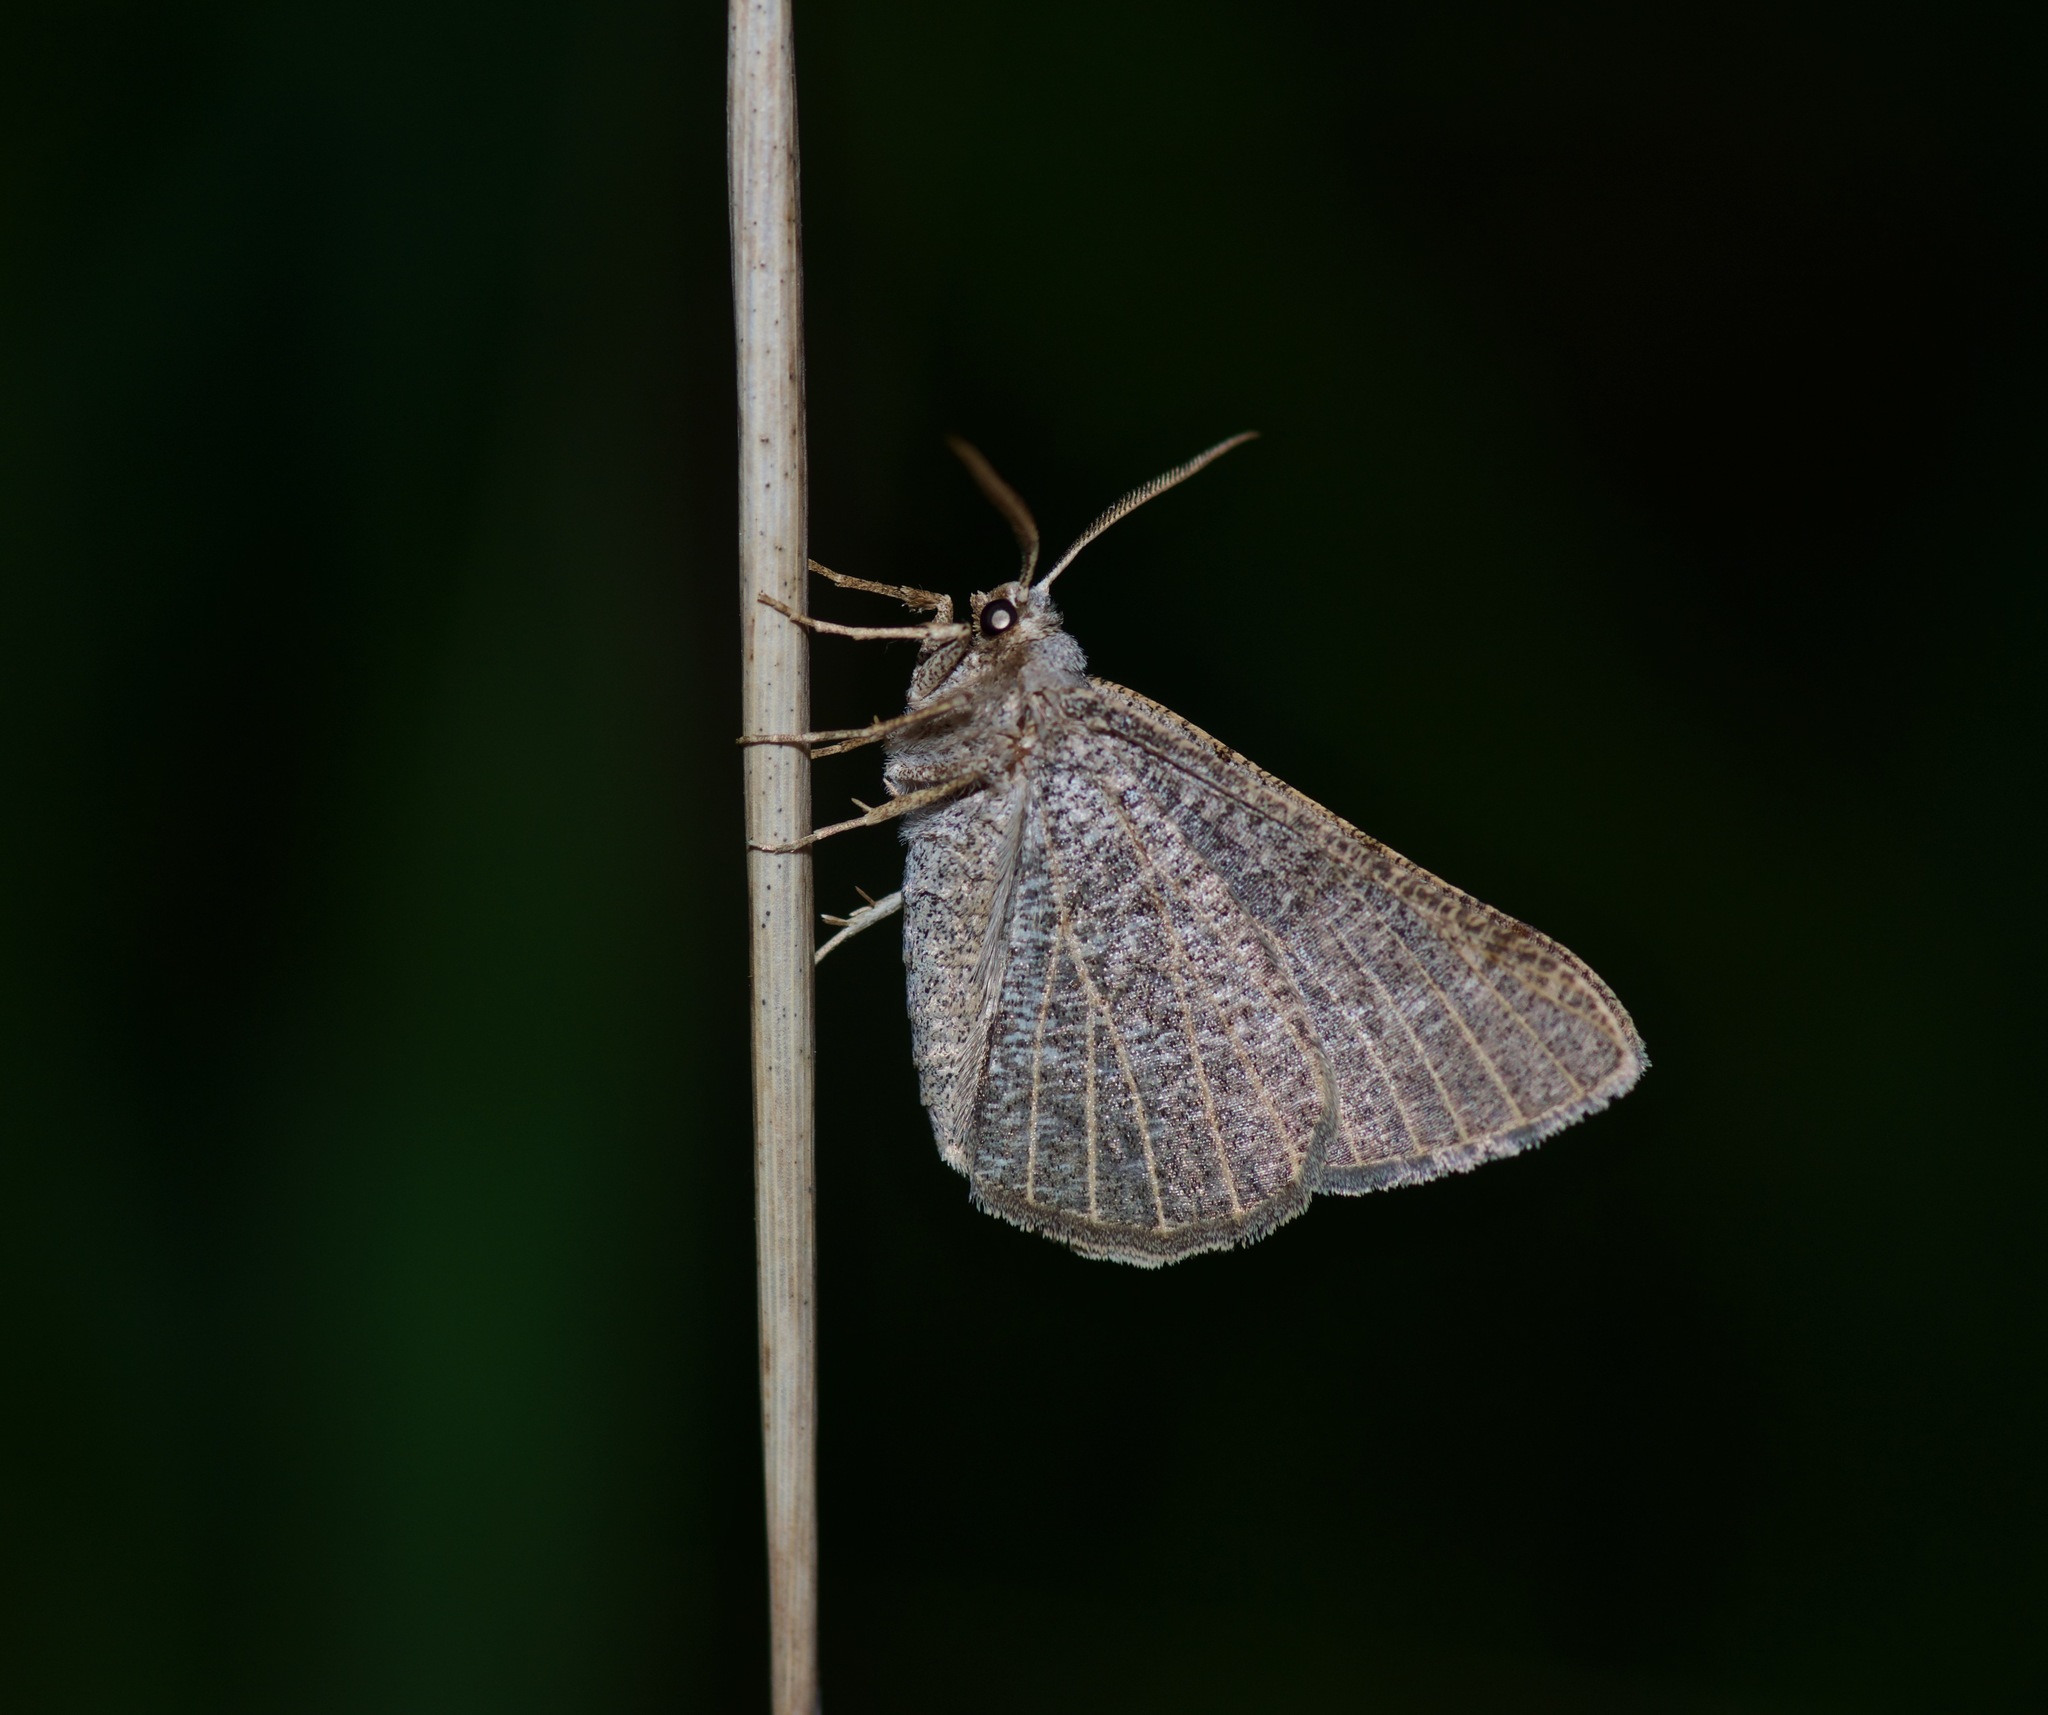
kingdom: Animalia
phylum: Arthropoda
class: Insecta
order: Lepidoptera
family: Geometridae
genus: Isturgia
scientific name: Isturgia dislocaria
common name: Pale-viened enconista
